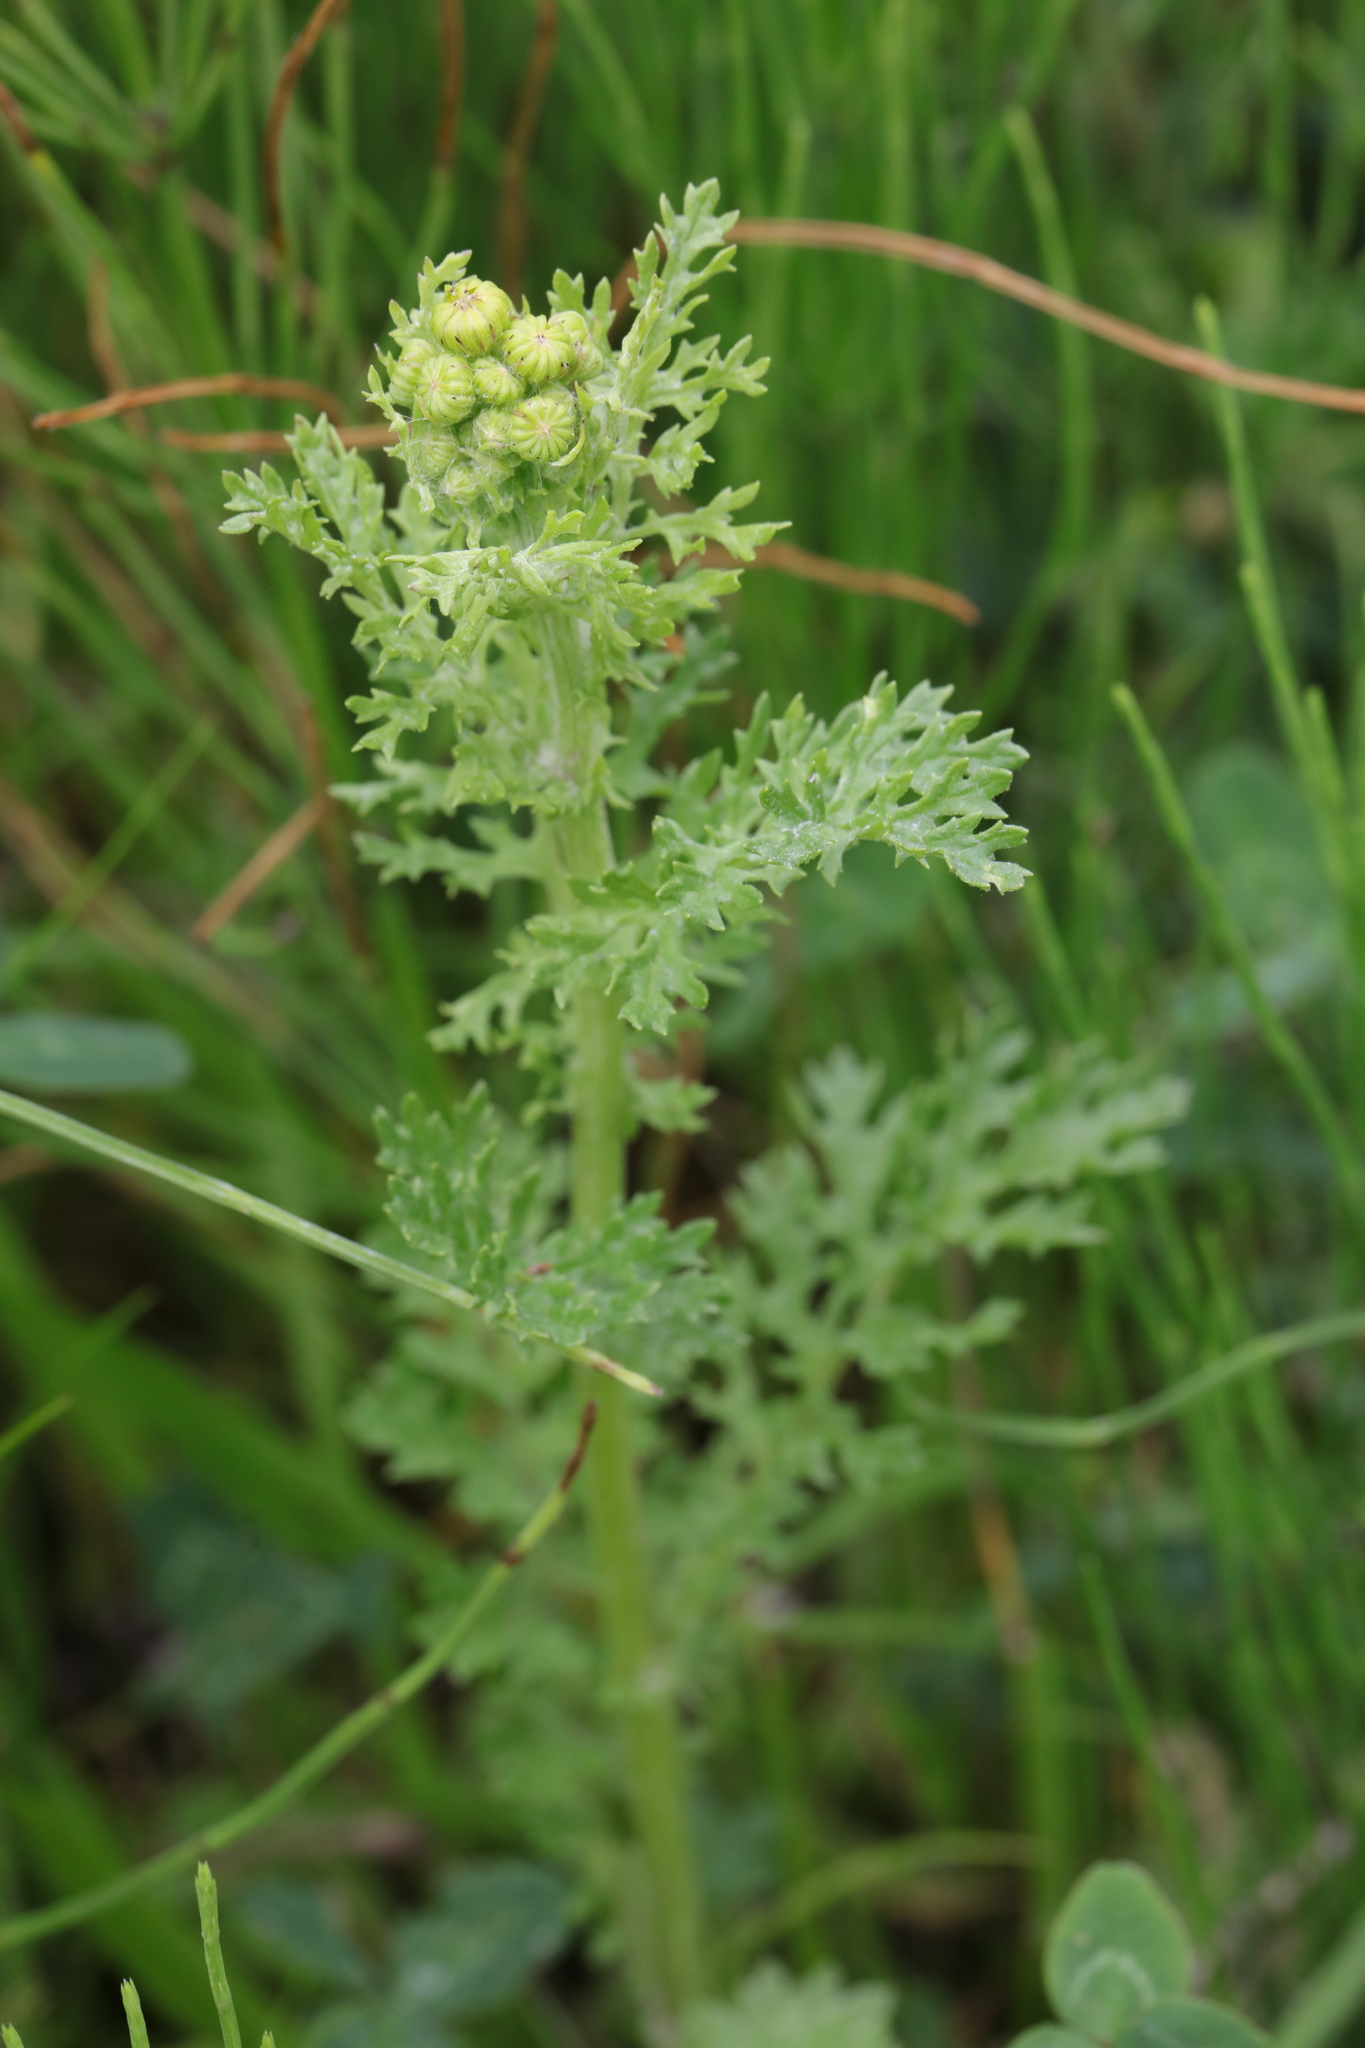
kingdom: Plantae
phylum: Tracheophyta
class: Magnoliopsida
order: Asterales
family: Asteraceae
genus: Jacobaea
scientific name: Jacobaea vulgaris
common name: Stinking willie
